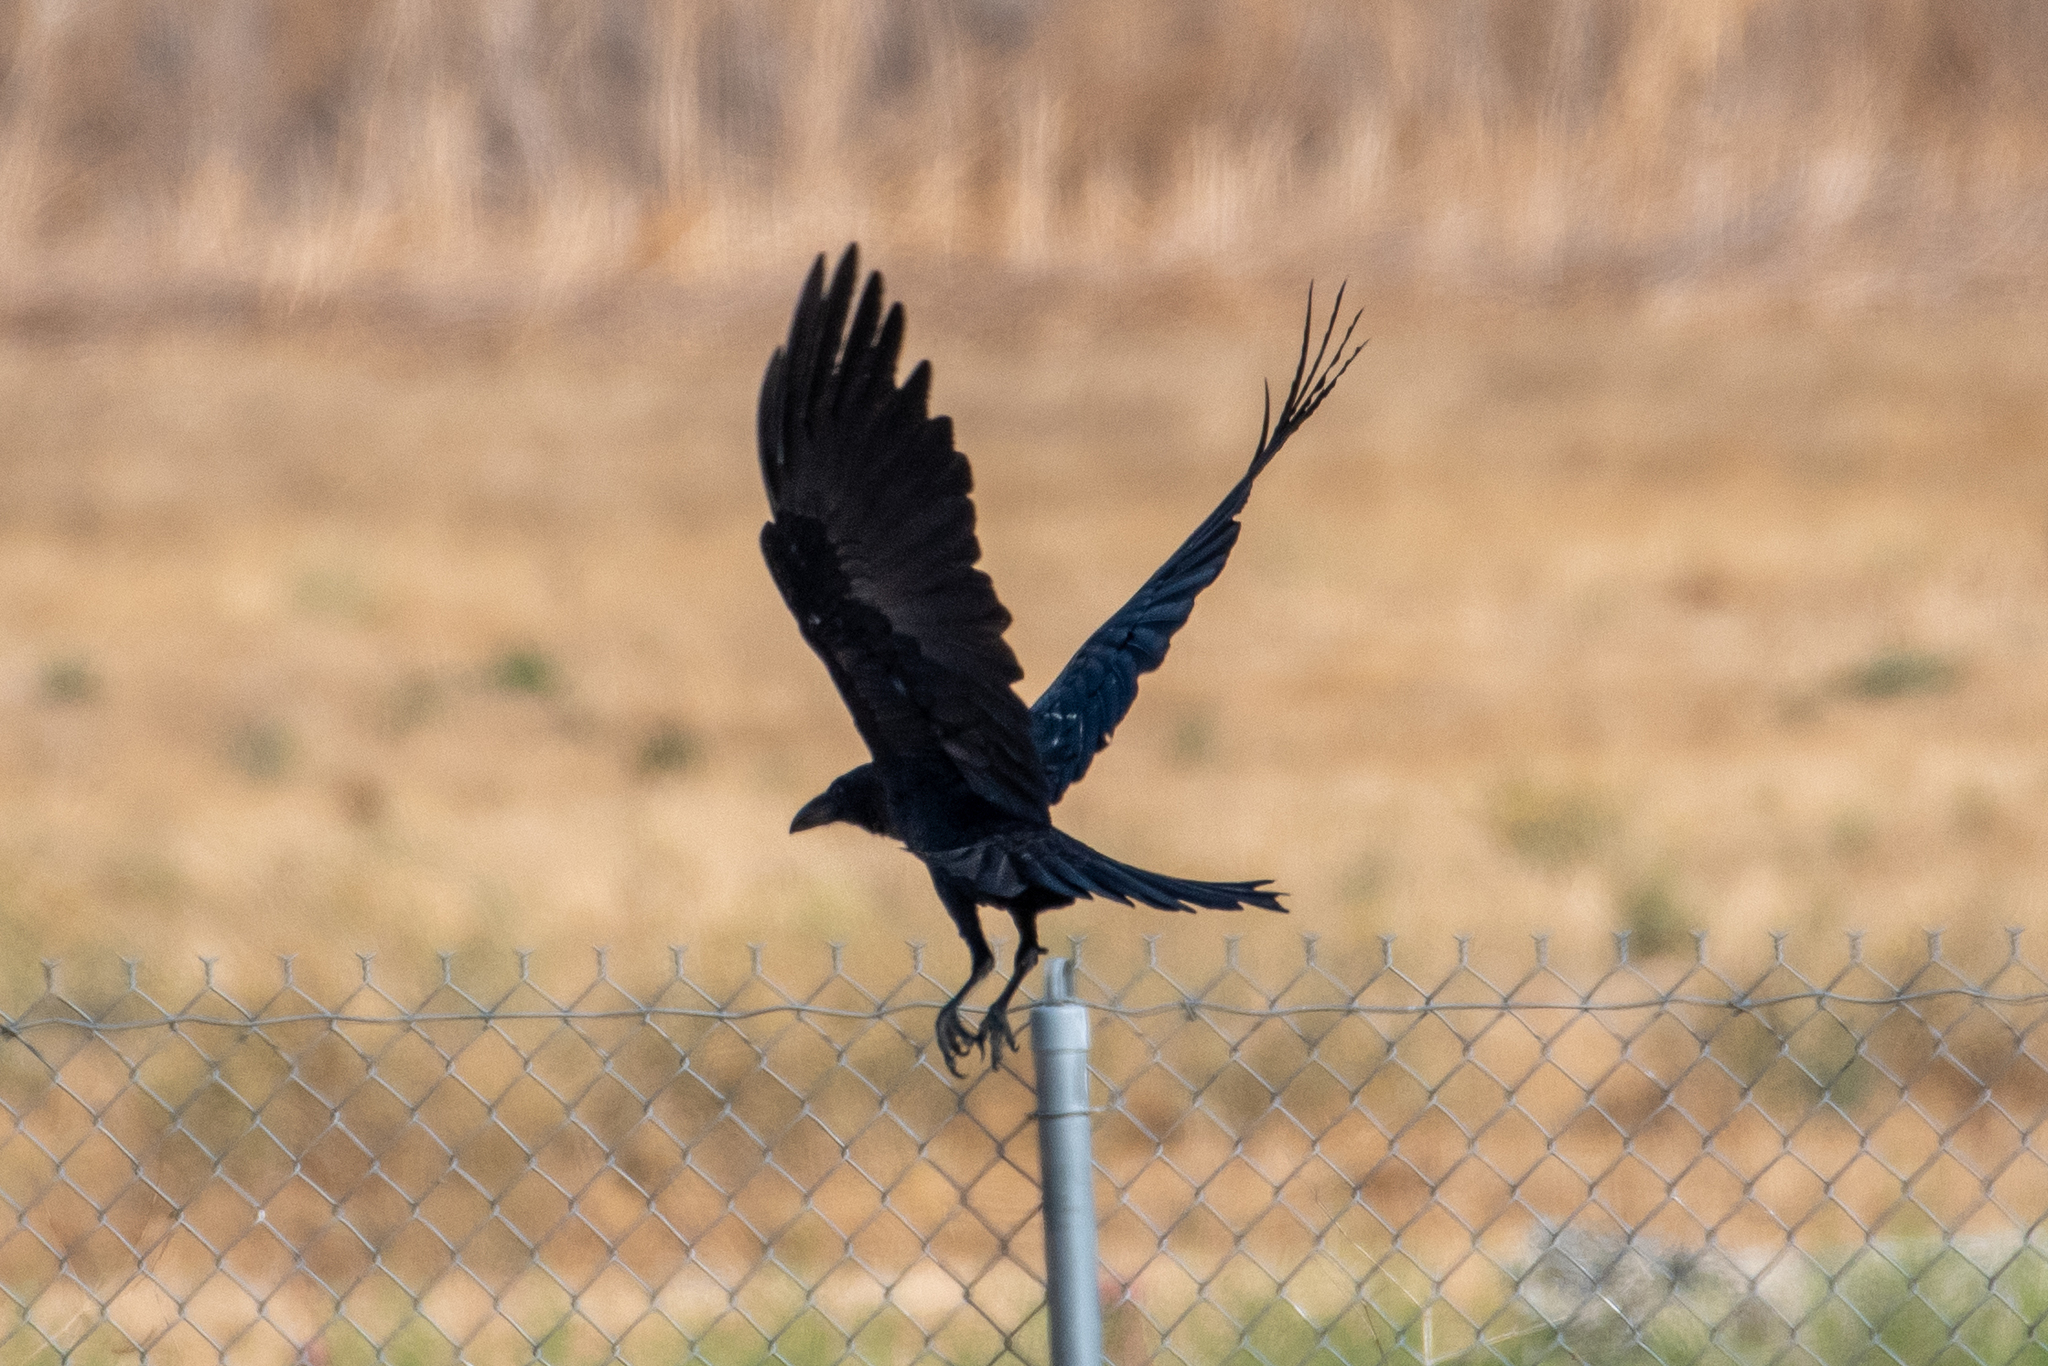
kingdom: Animalia
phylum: Chordata
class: Aves
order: Passeriformes
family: Corvidae
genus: Corvus
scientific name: Corvus corax
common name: Common raven
